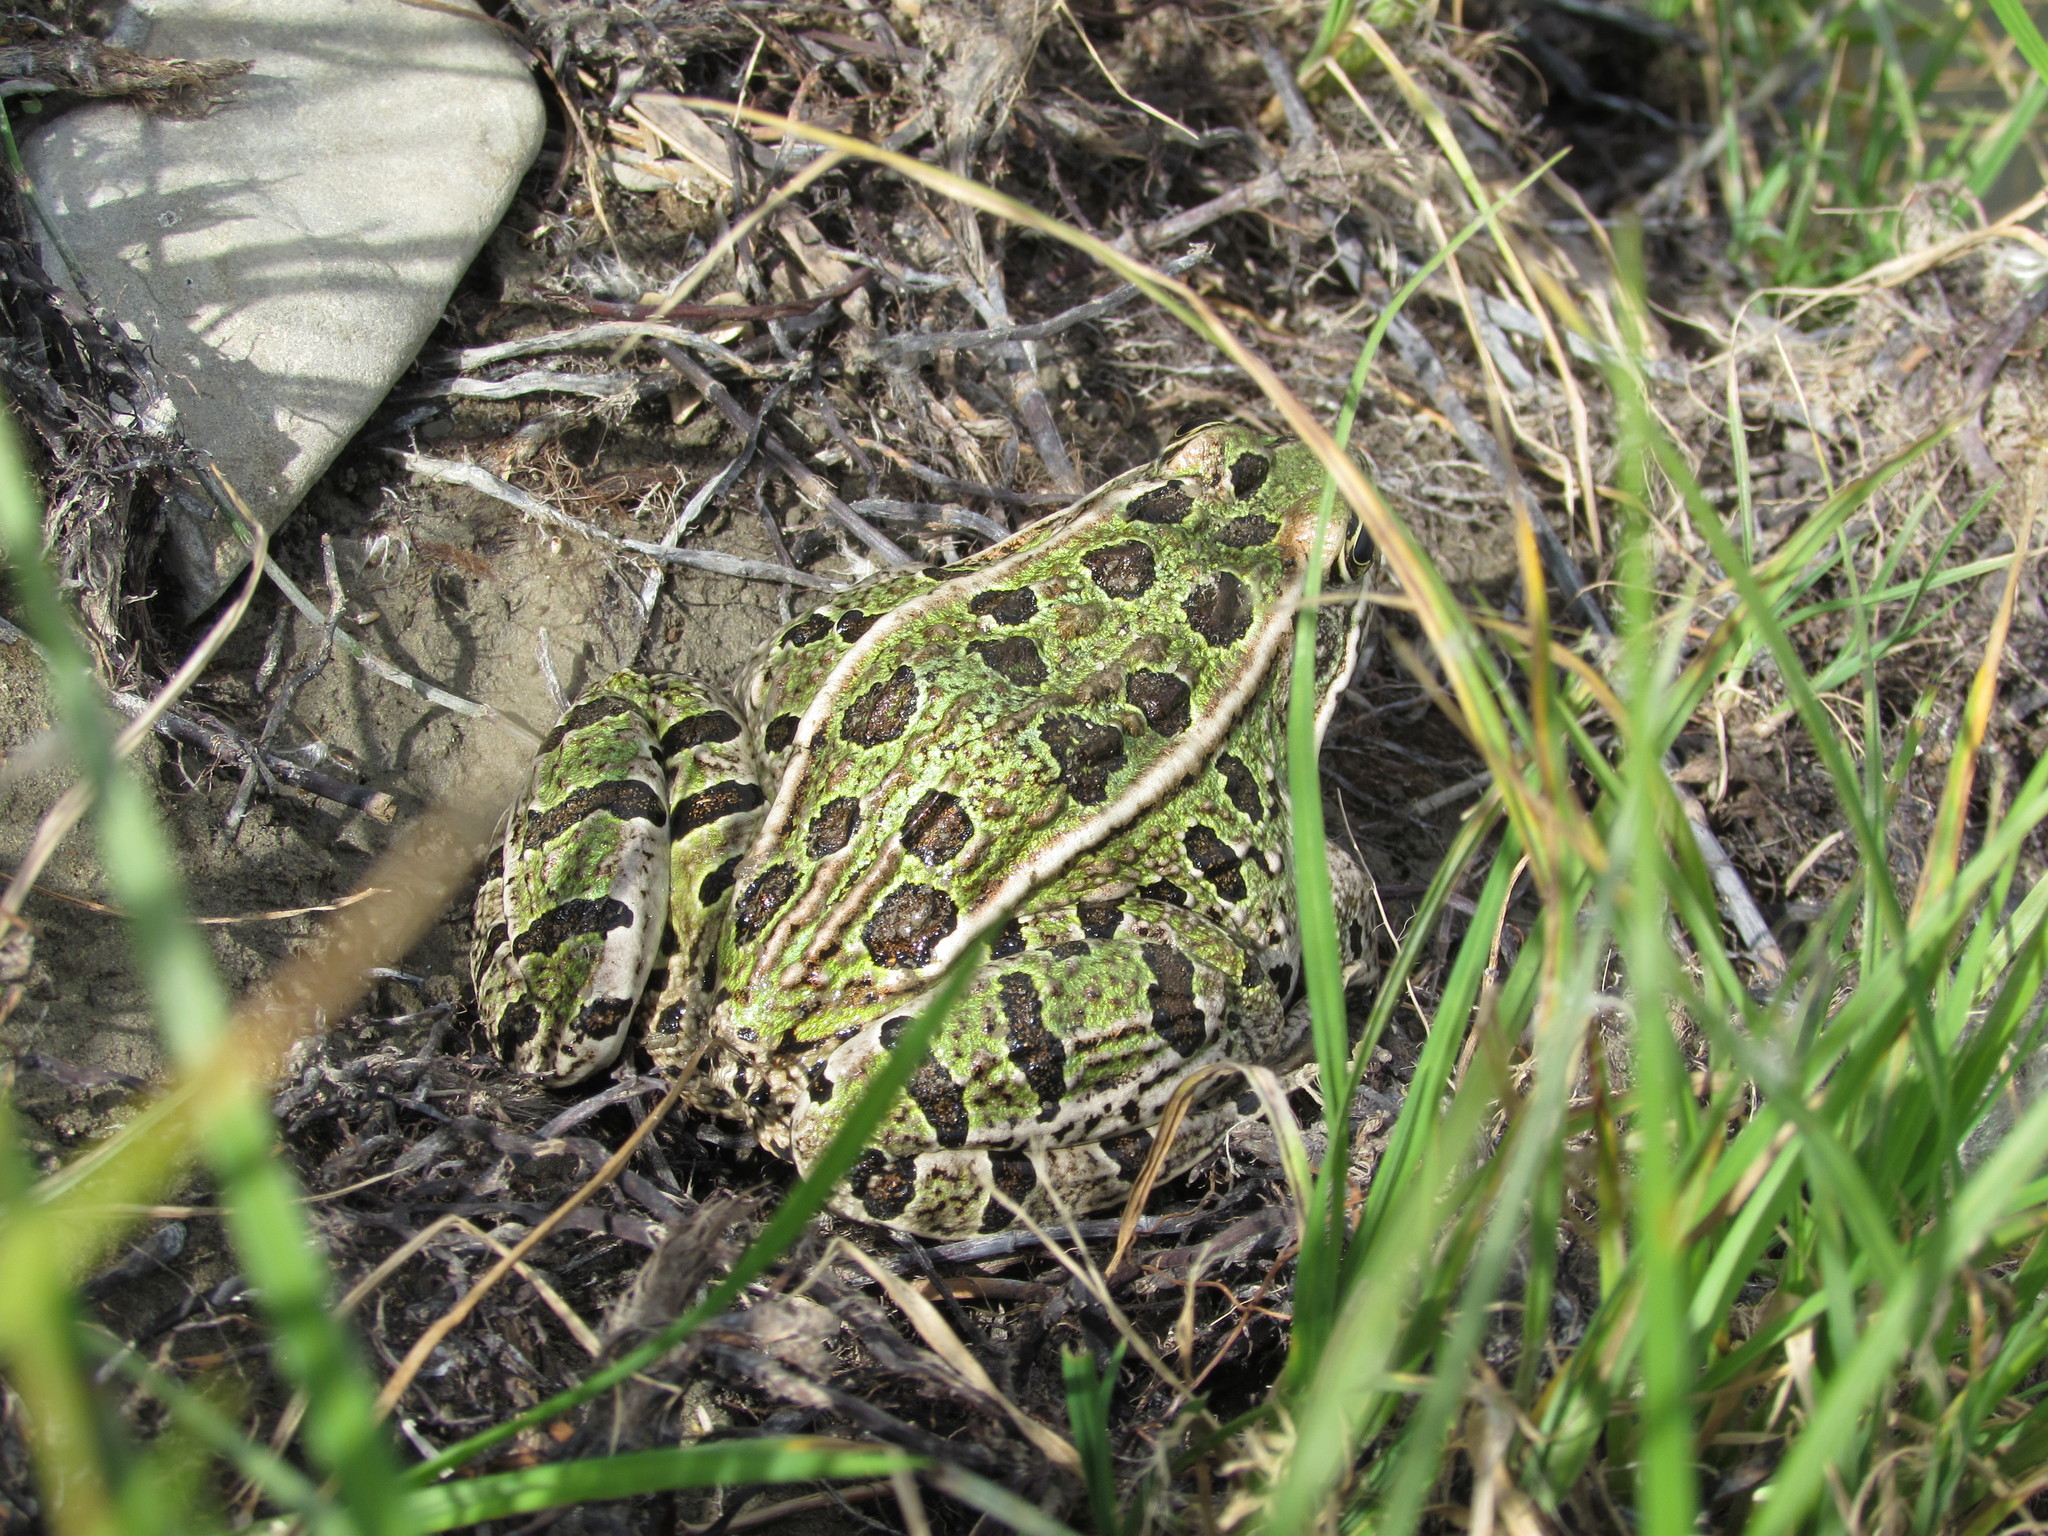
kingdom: Animalia
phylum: Chordata
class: Amphibia
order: Anura
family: Ranidae
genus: Lithobates
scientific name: Lithobates pipiens
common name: Northern leopard frog
